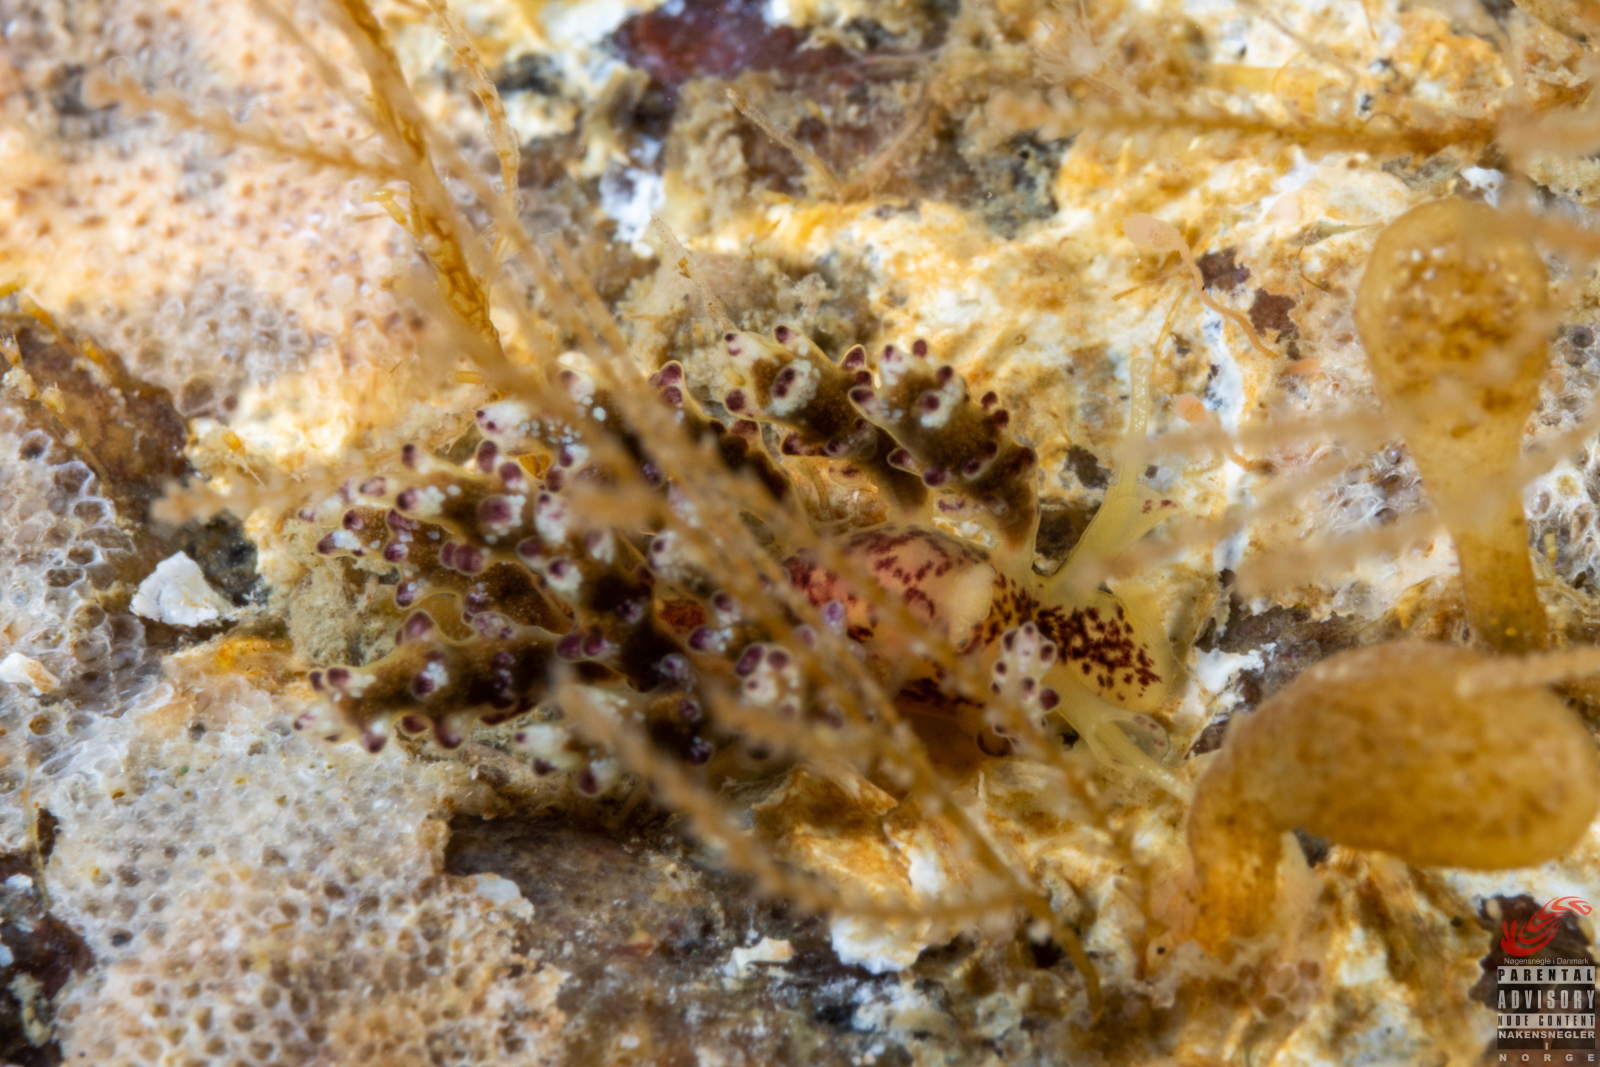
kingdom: Animalia
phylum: Mollusca
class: Gastropoda
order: Nudibranchia
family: Dotidae
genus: Doto
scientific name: Doto hydrallmaniae
